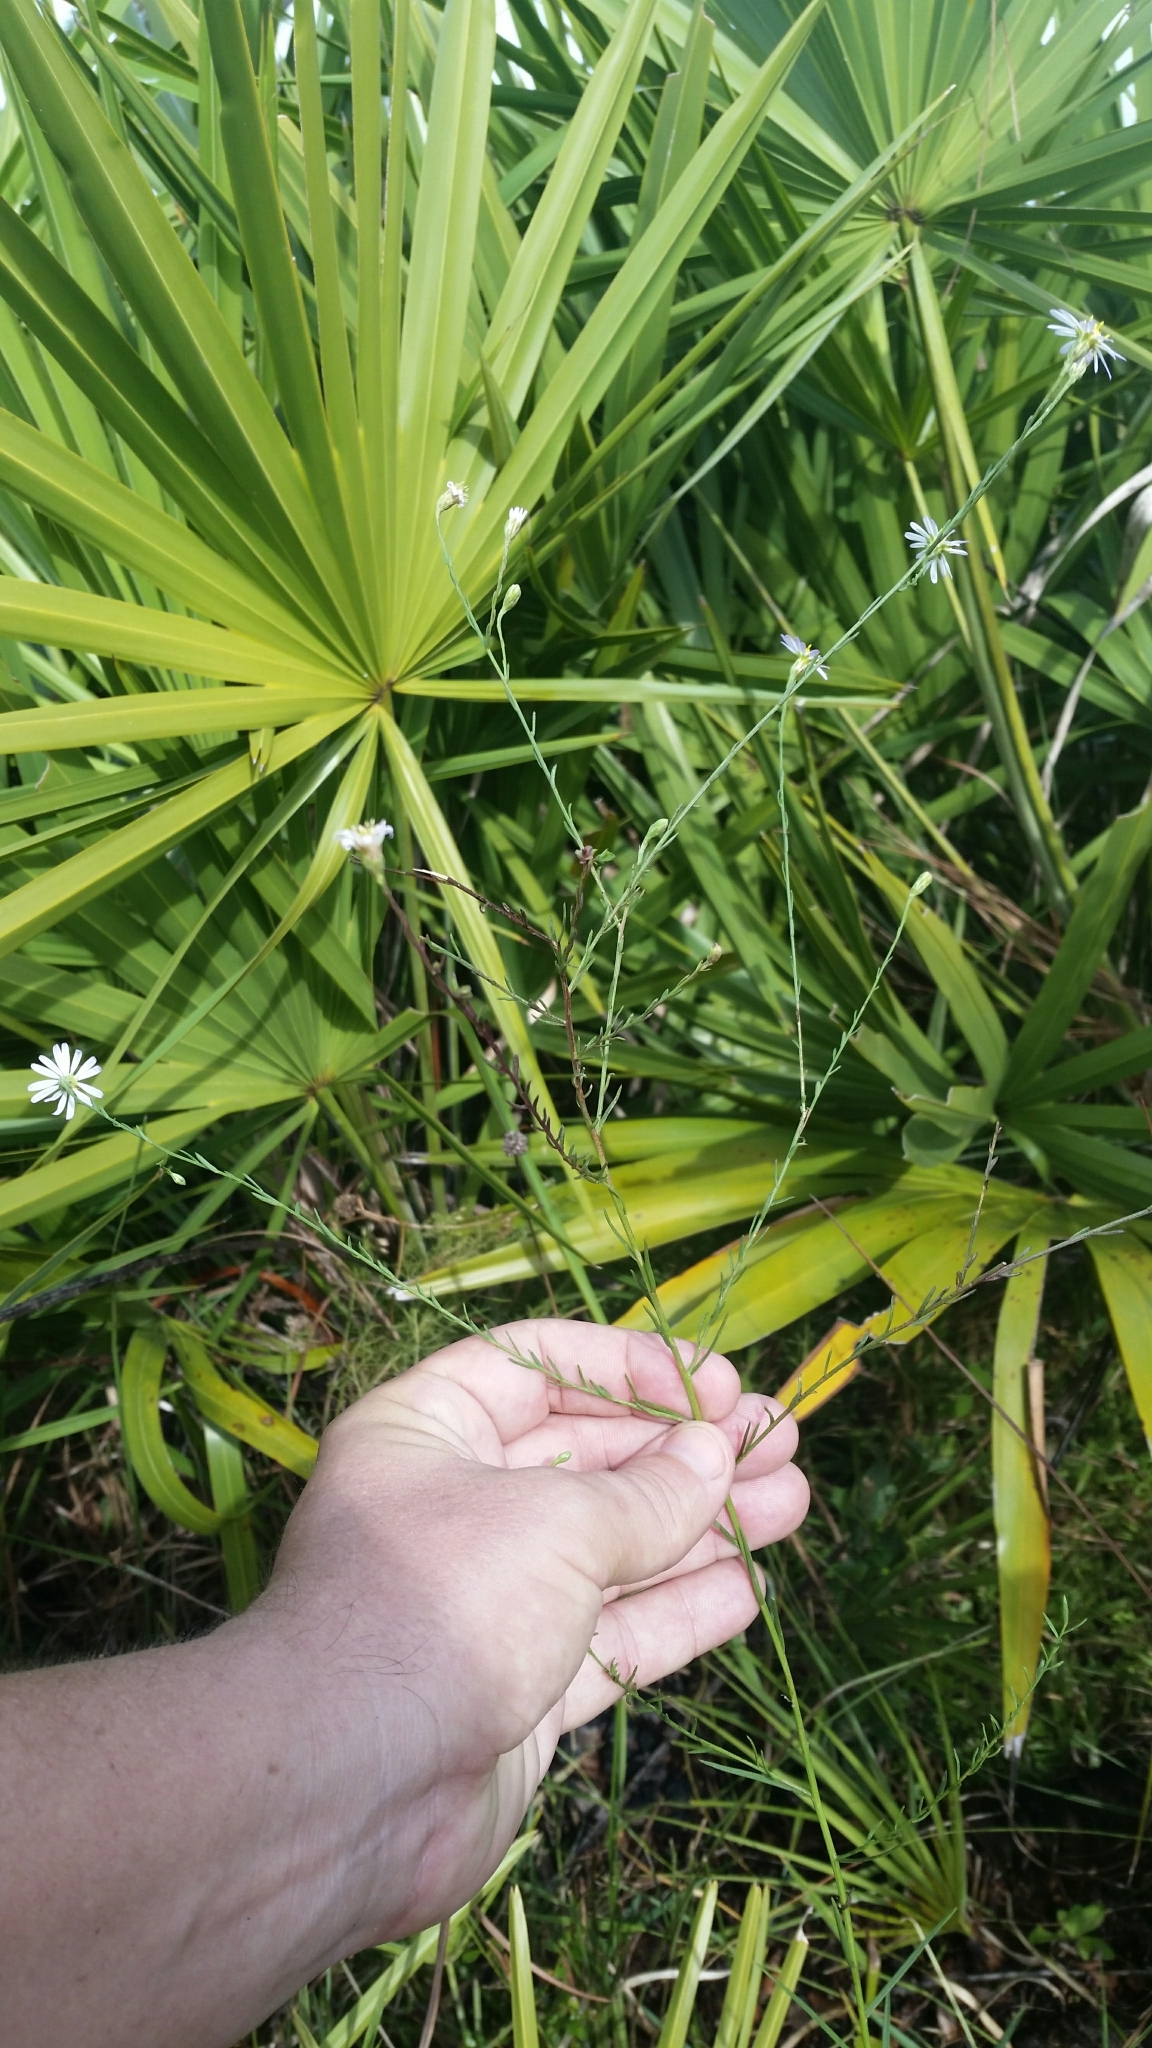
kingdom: Plantae
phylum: Tracheophyta
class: Magnoliopsida
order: Asterales
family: Asteraceae
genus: Symphyotrichum
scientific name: Symphyotrichum dumosum
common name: Bushy aster
